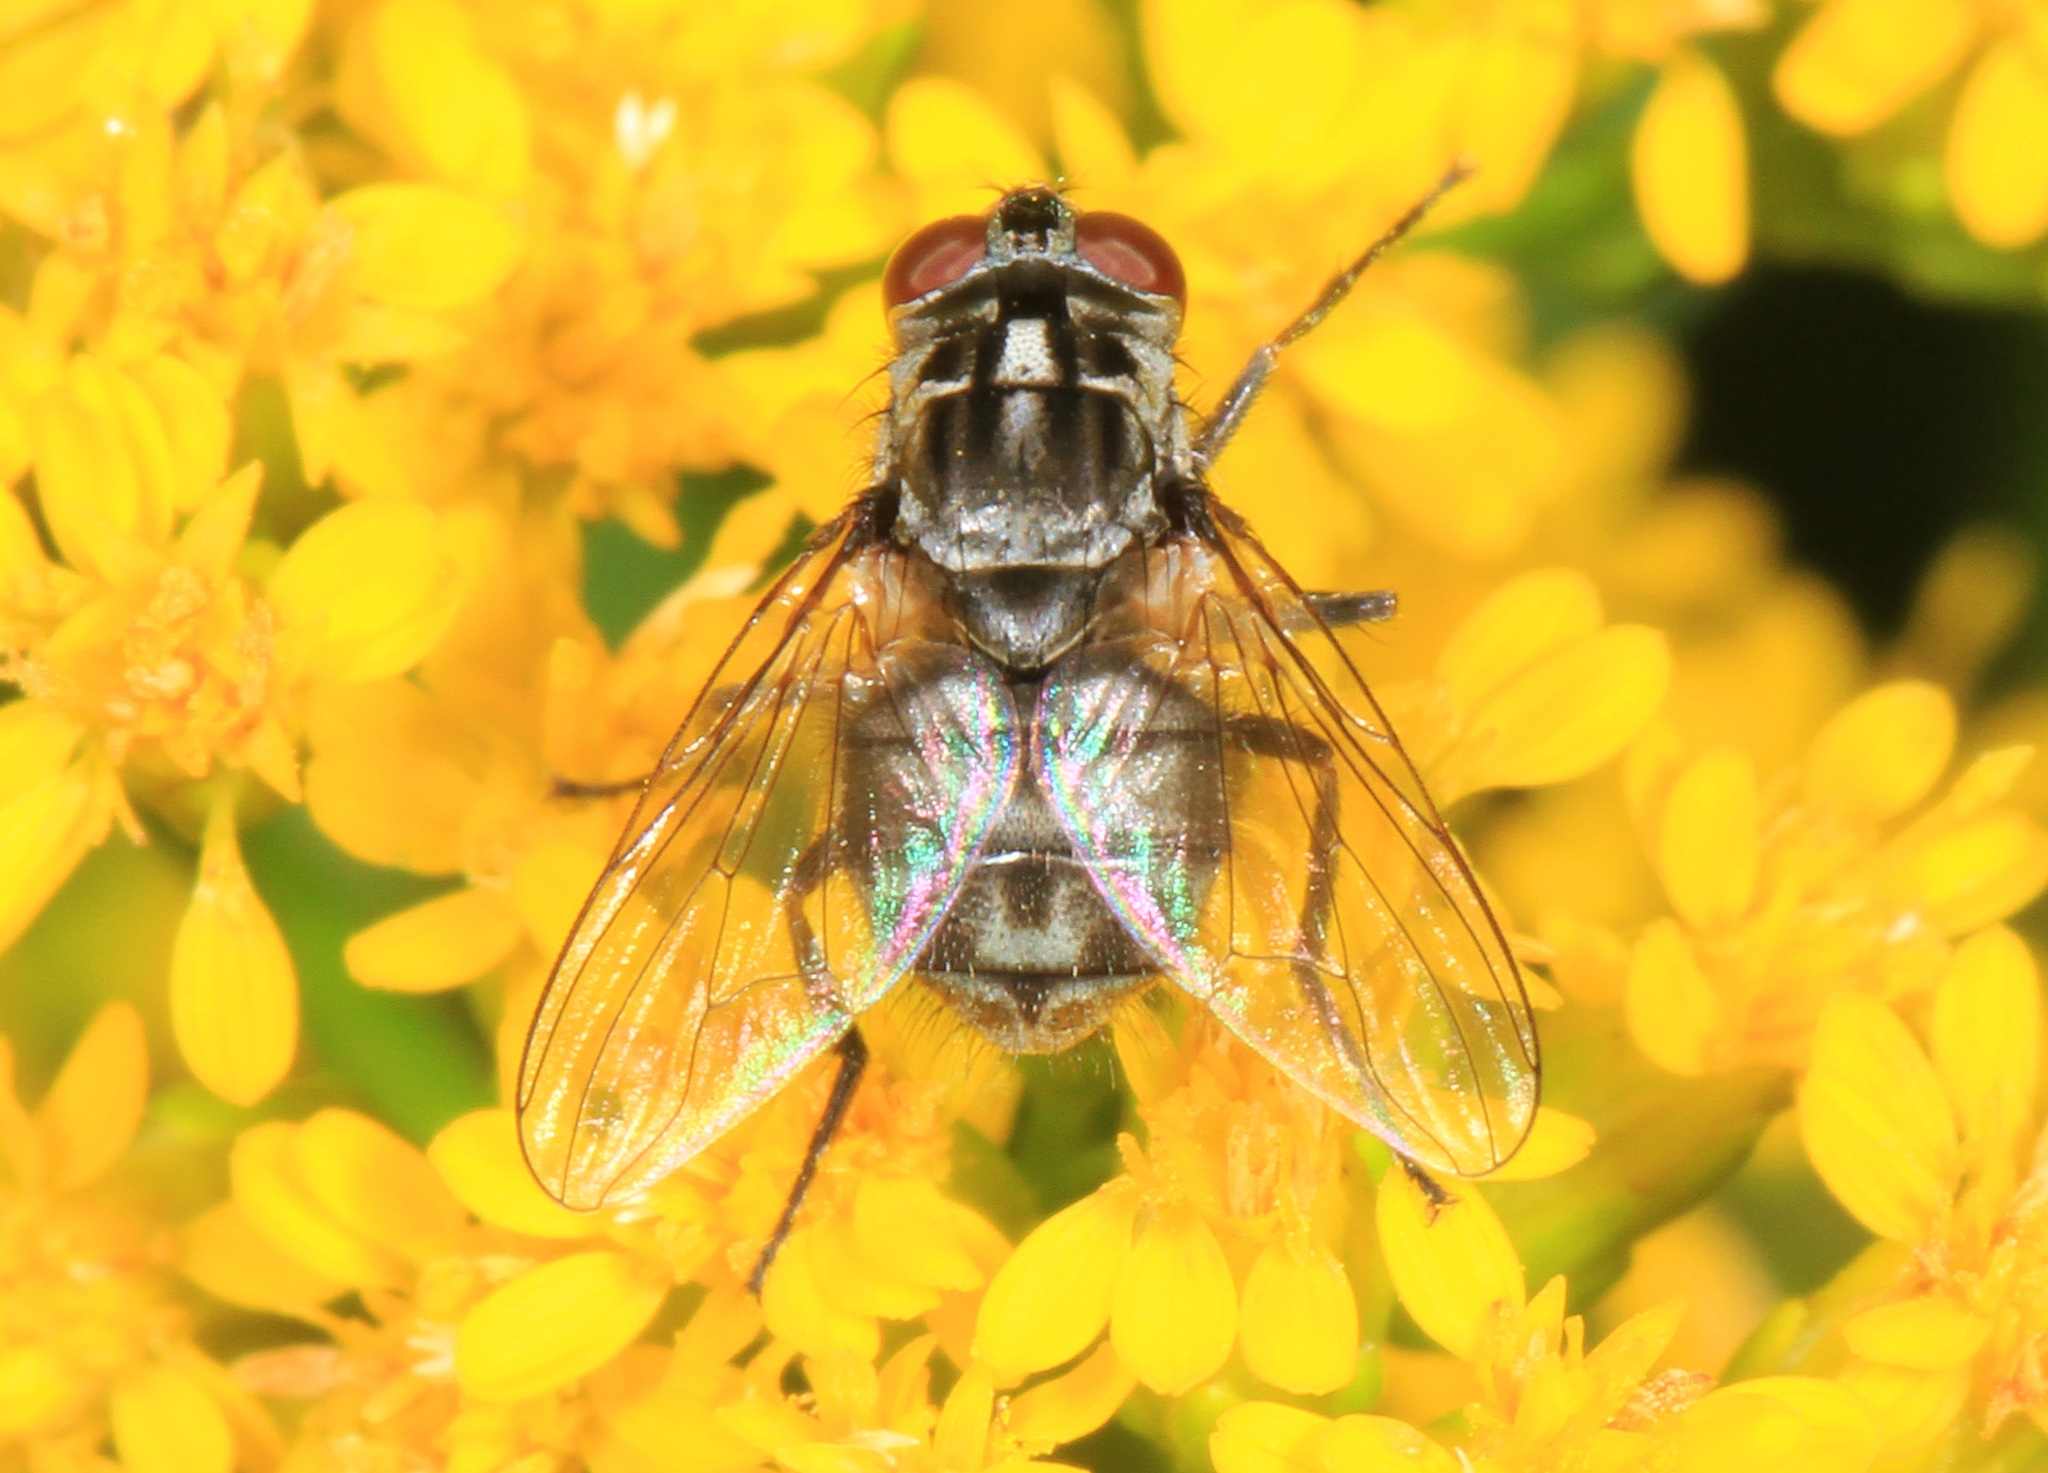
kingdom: Animalia
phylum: Arthropoda
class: Insecta
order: Diptera
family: Muscidae
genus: Stomoxys
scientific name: Stomoxys calcitrans
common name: Stable fly
